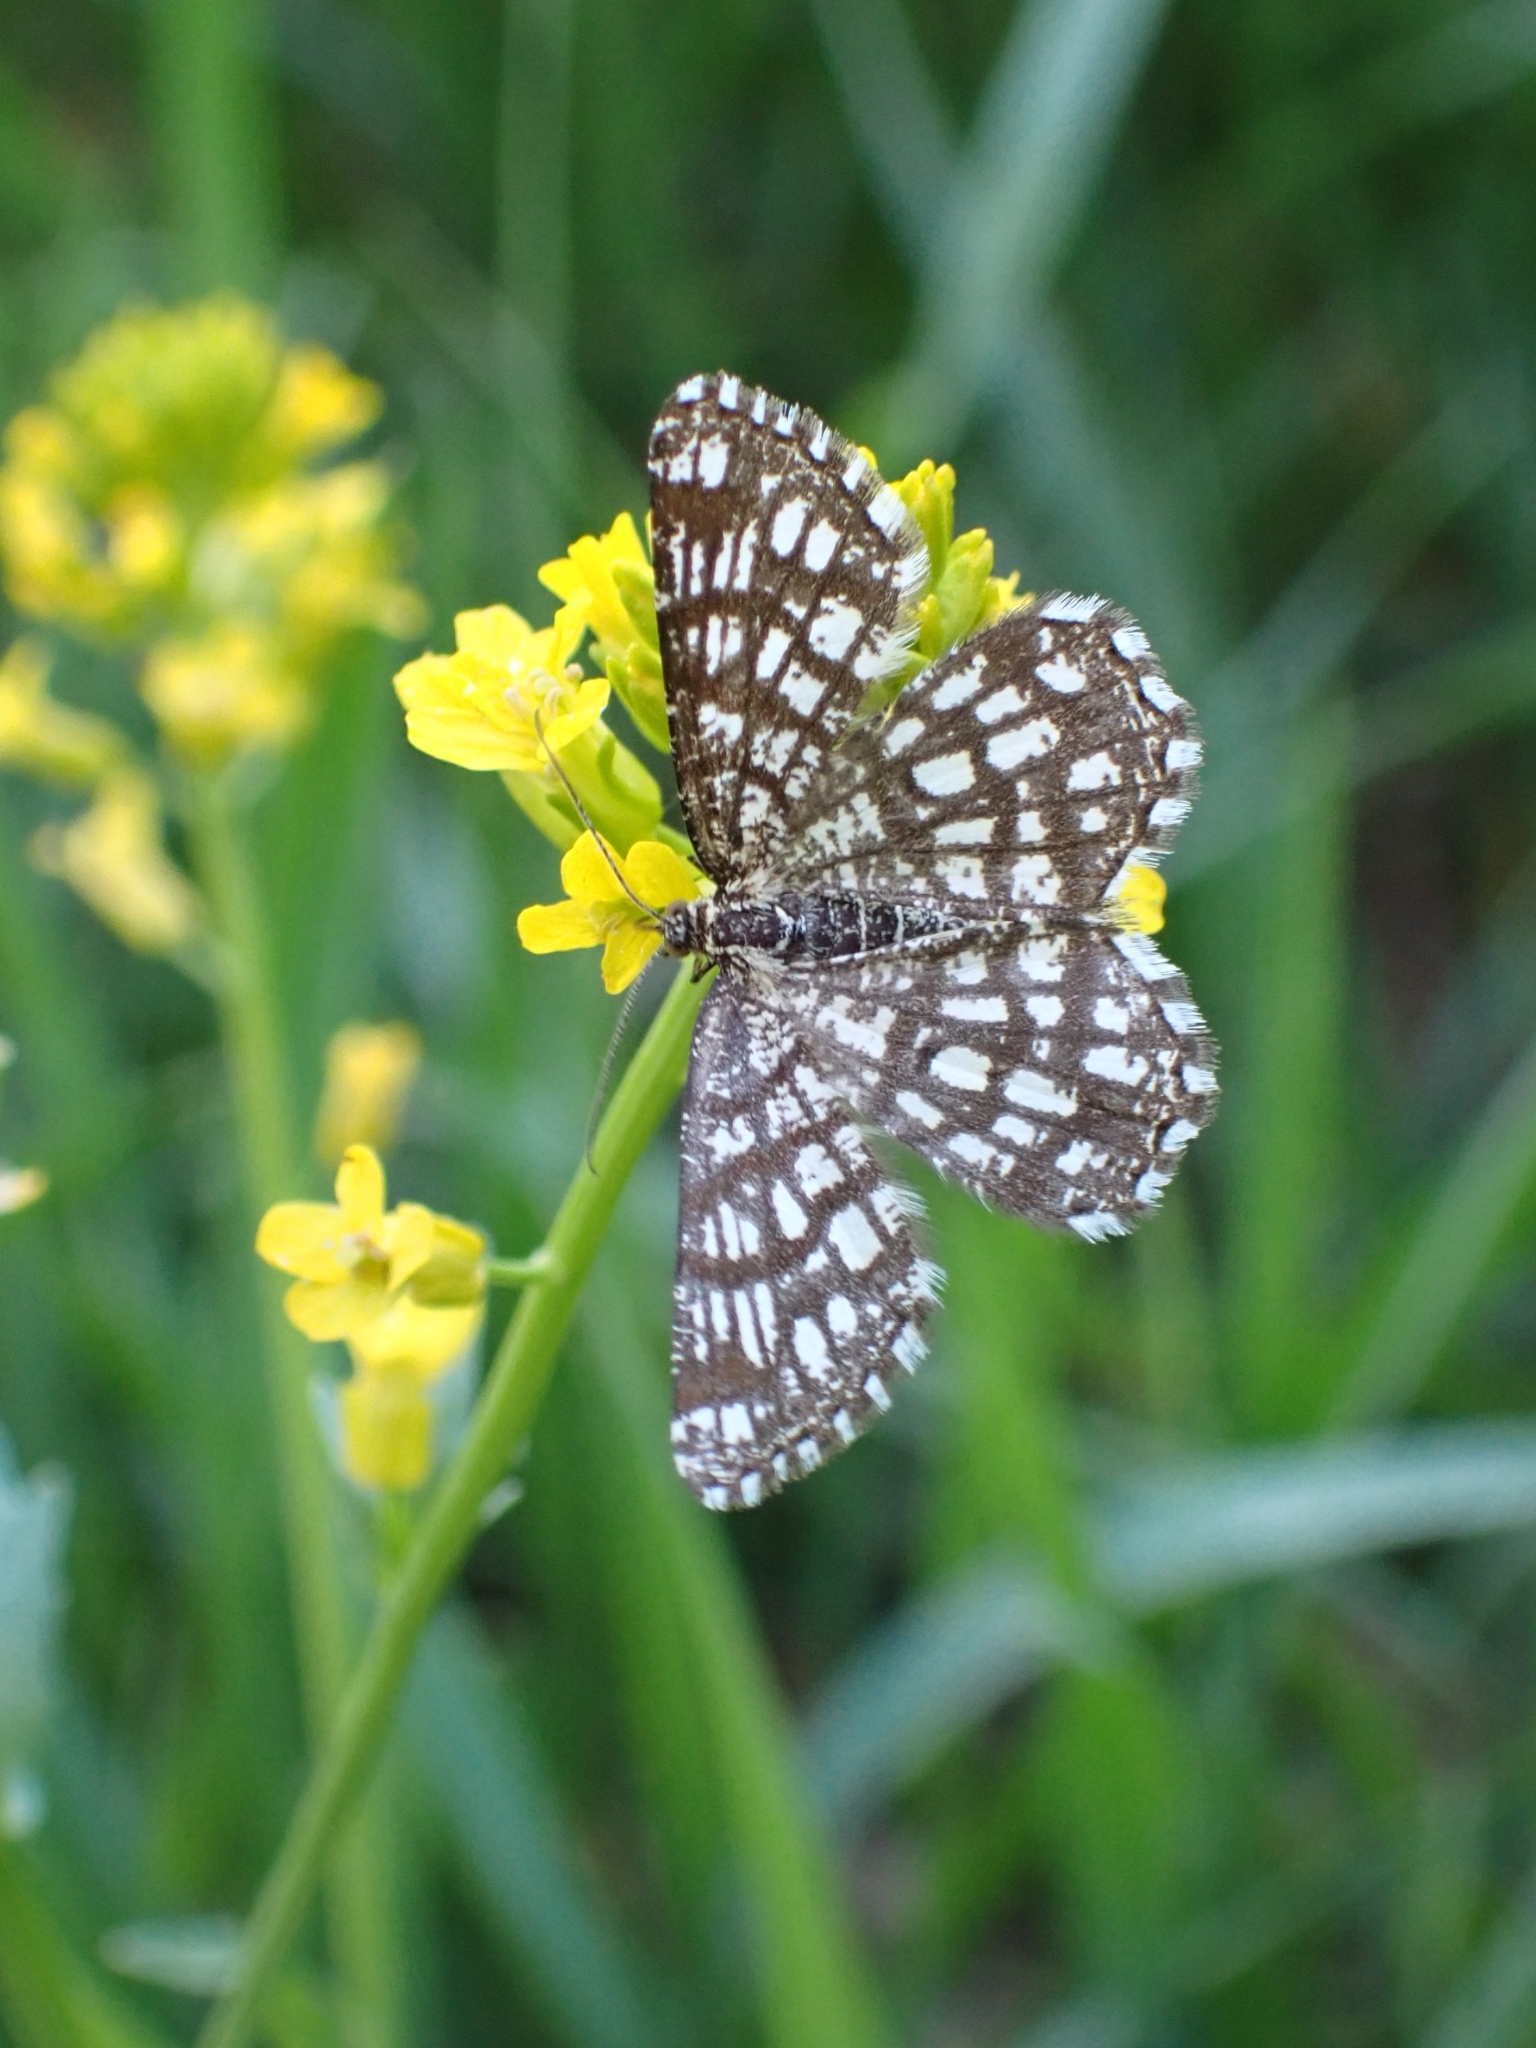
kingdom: Animalia
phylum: Arthropoda
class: Insecta
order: Lepidoptera
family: Geometridae
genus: Chiasmia
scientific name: Chiasmia clathrata
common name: Latticed heath
